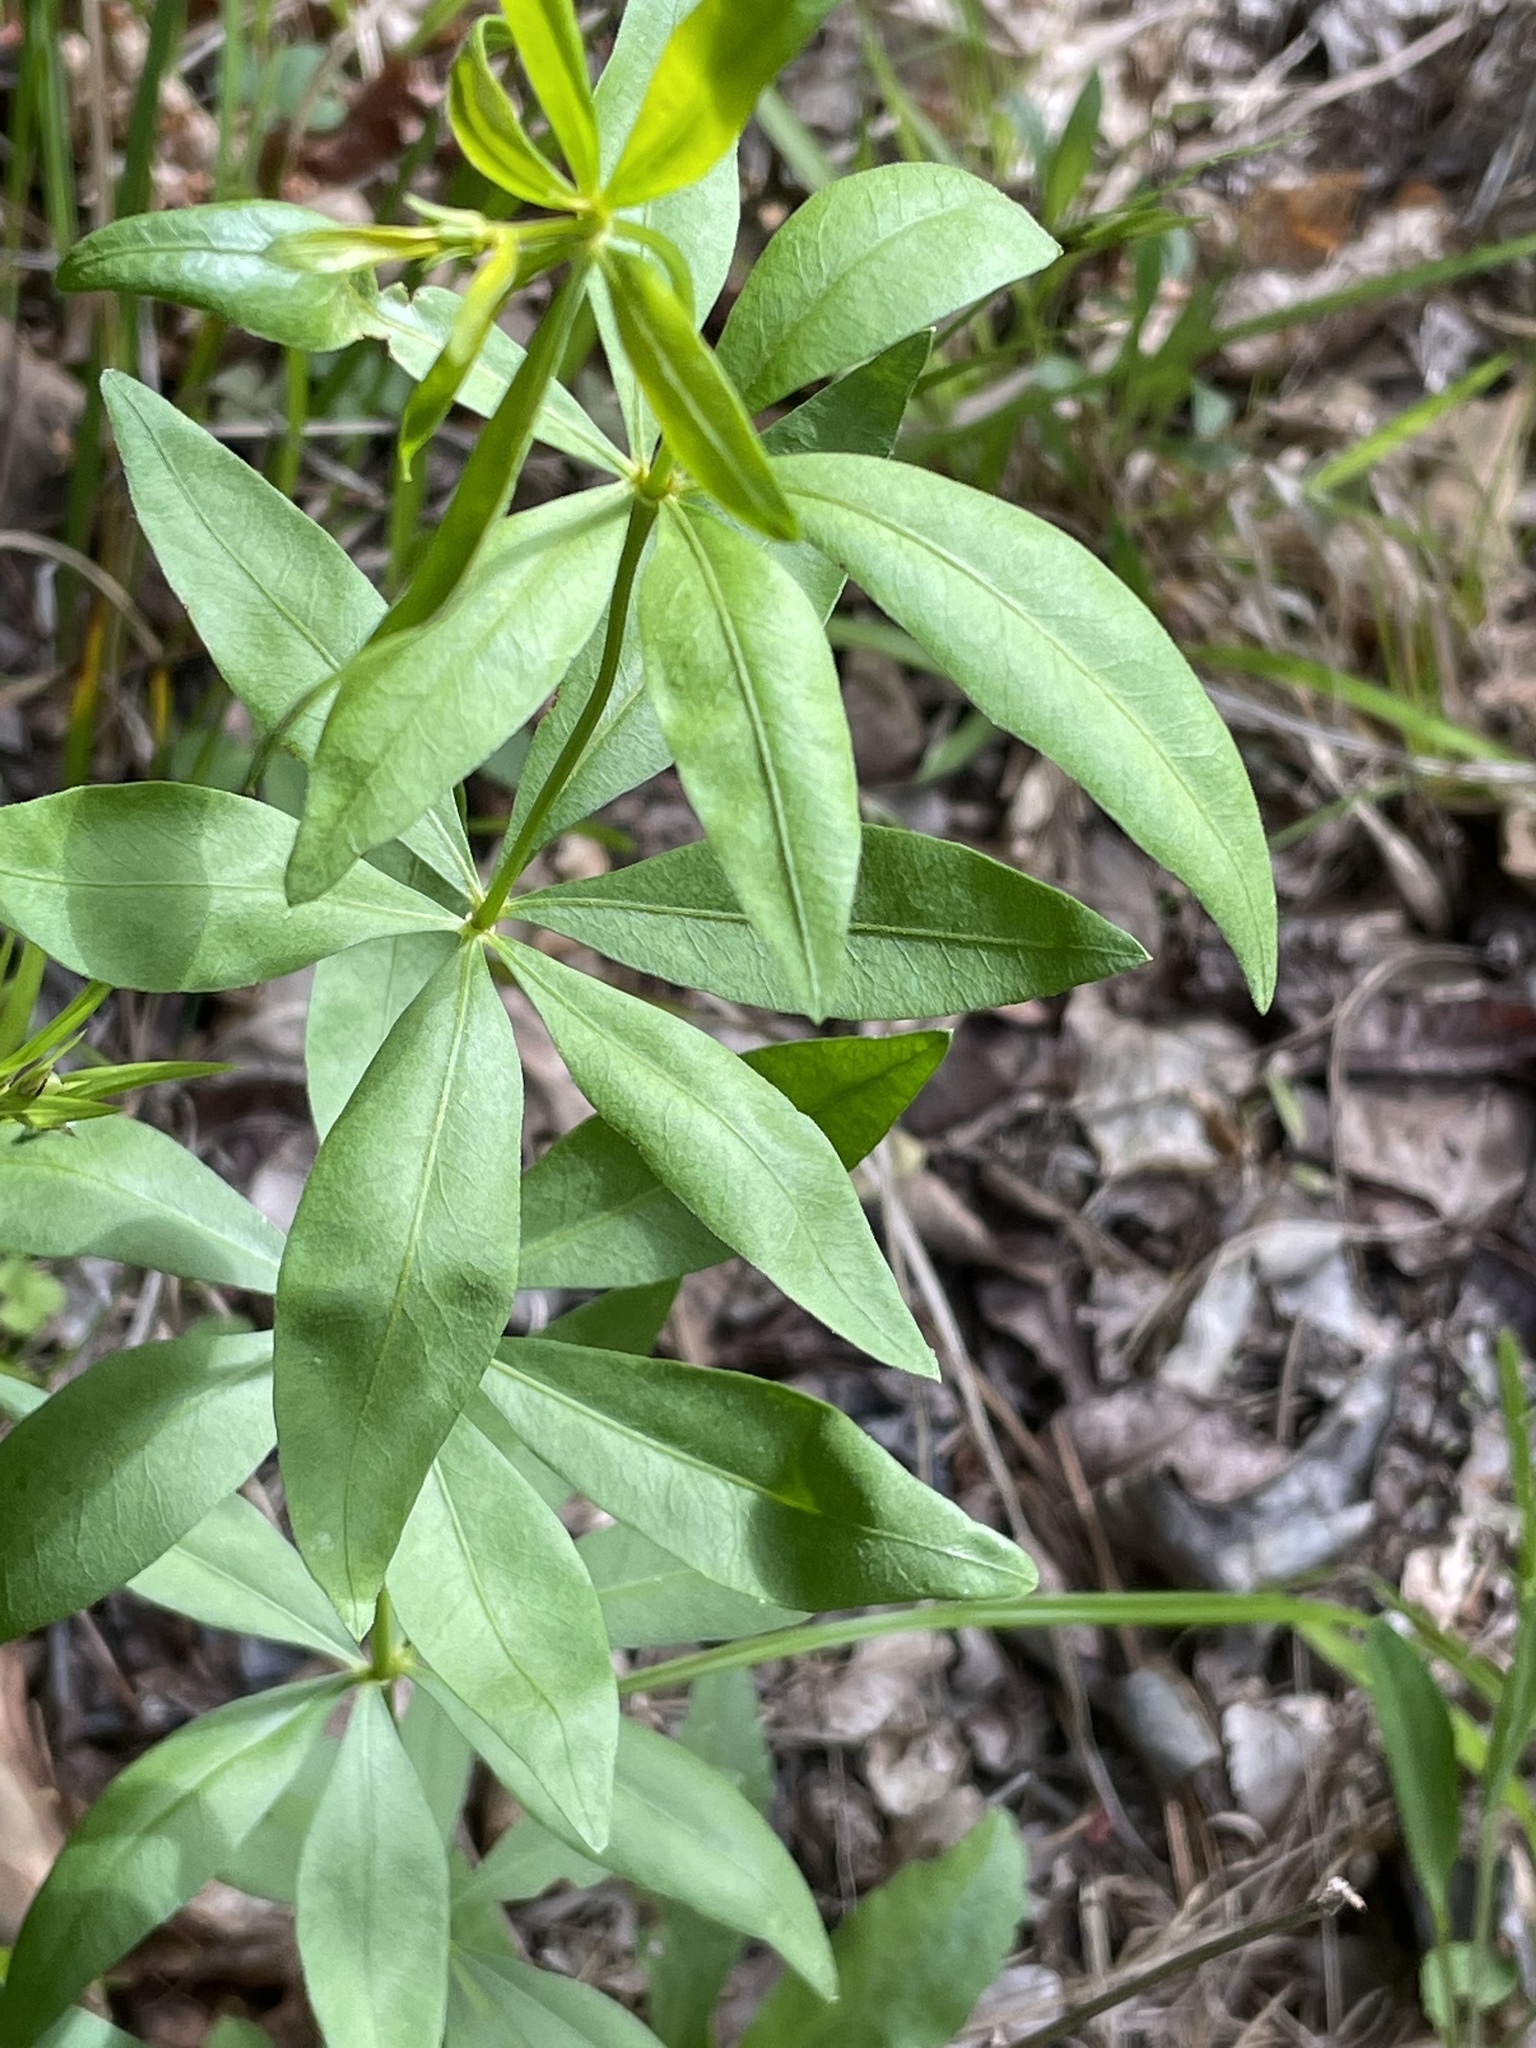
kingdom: Plantae
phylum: Tracheophyta
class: Magnoliopsida
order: Asterales
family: Asteraceae
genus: Coreopsis
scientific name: Coreopsis major
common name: Forest tickseed
